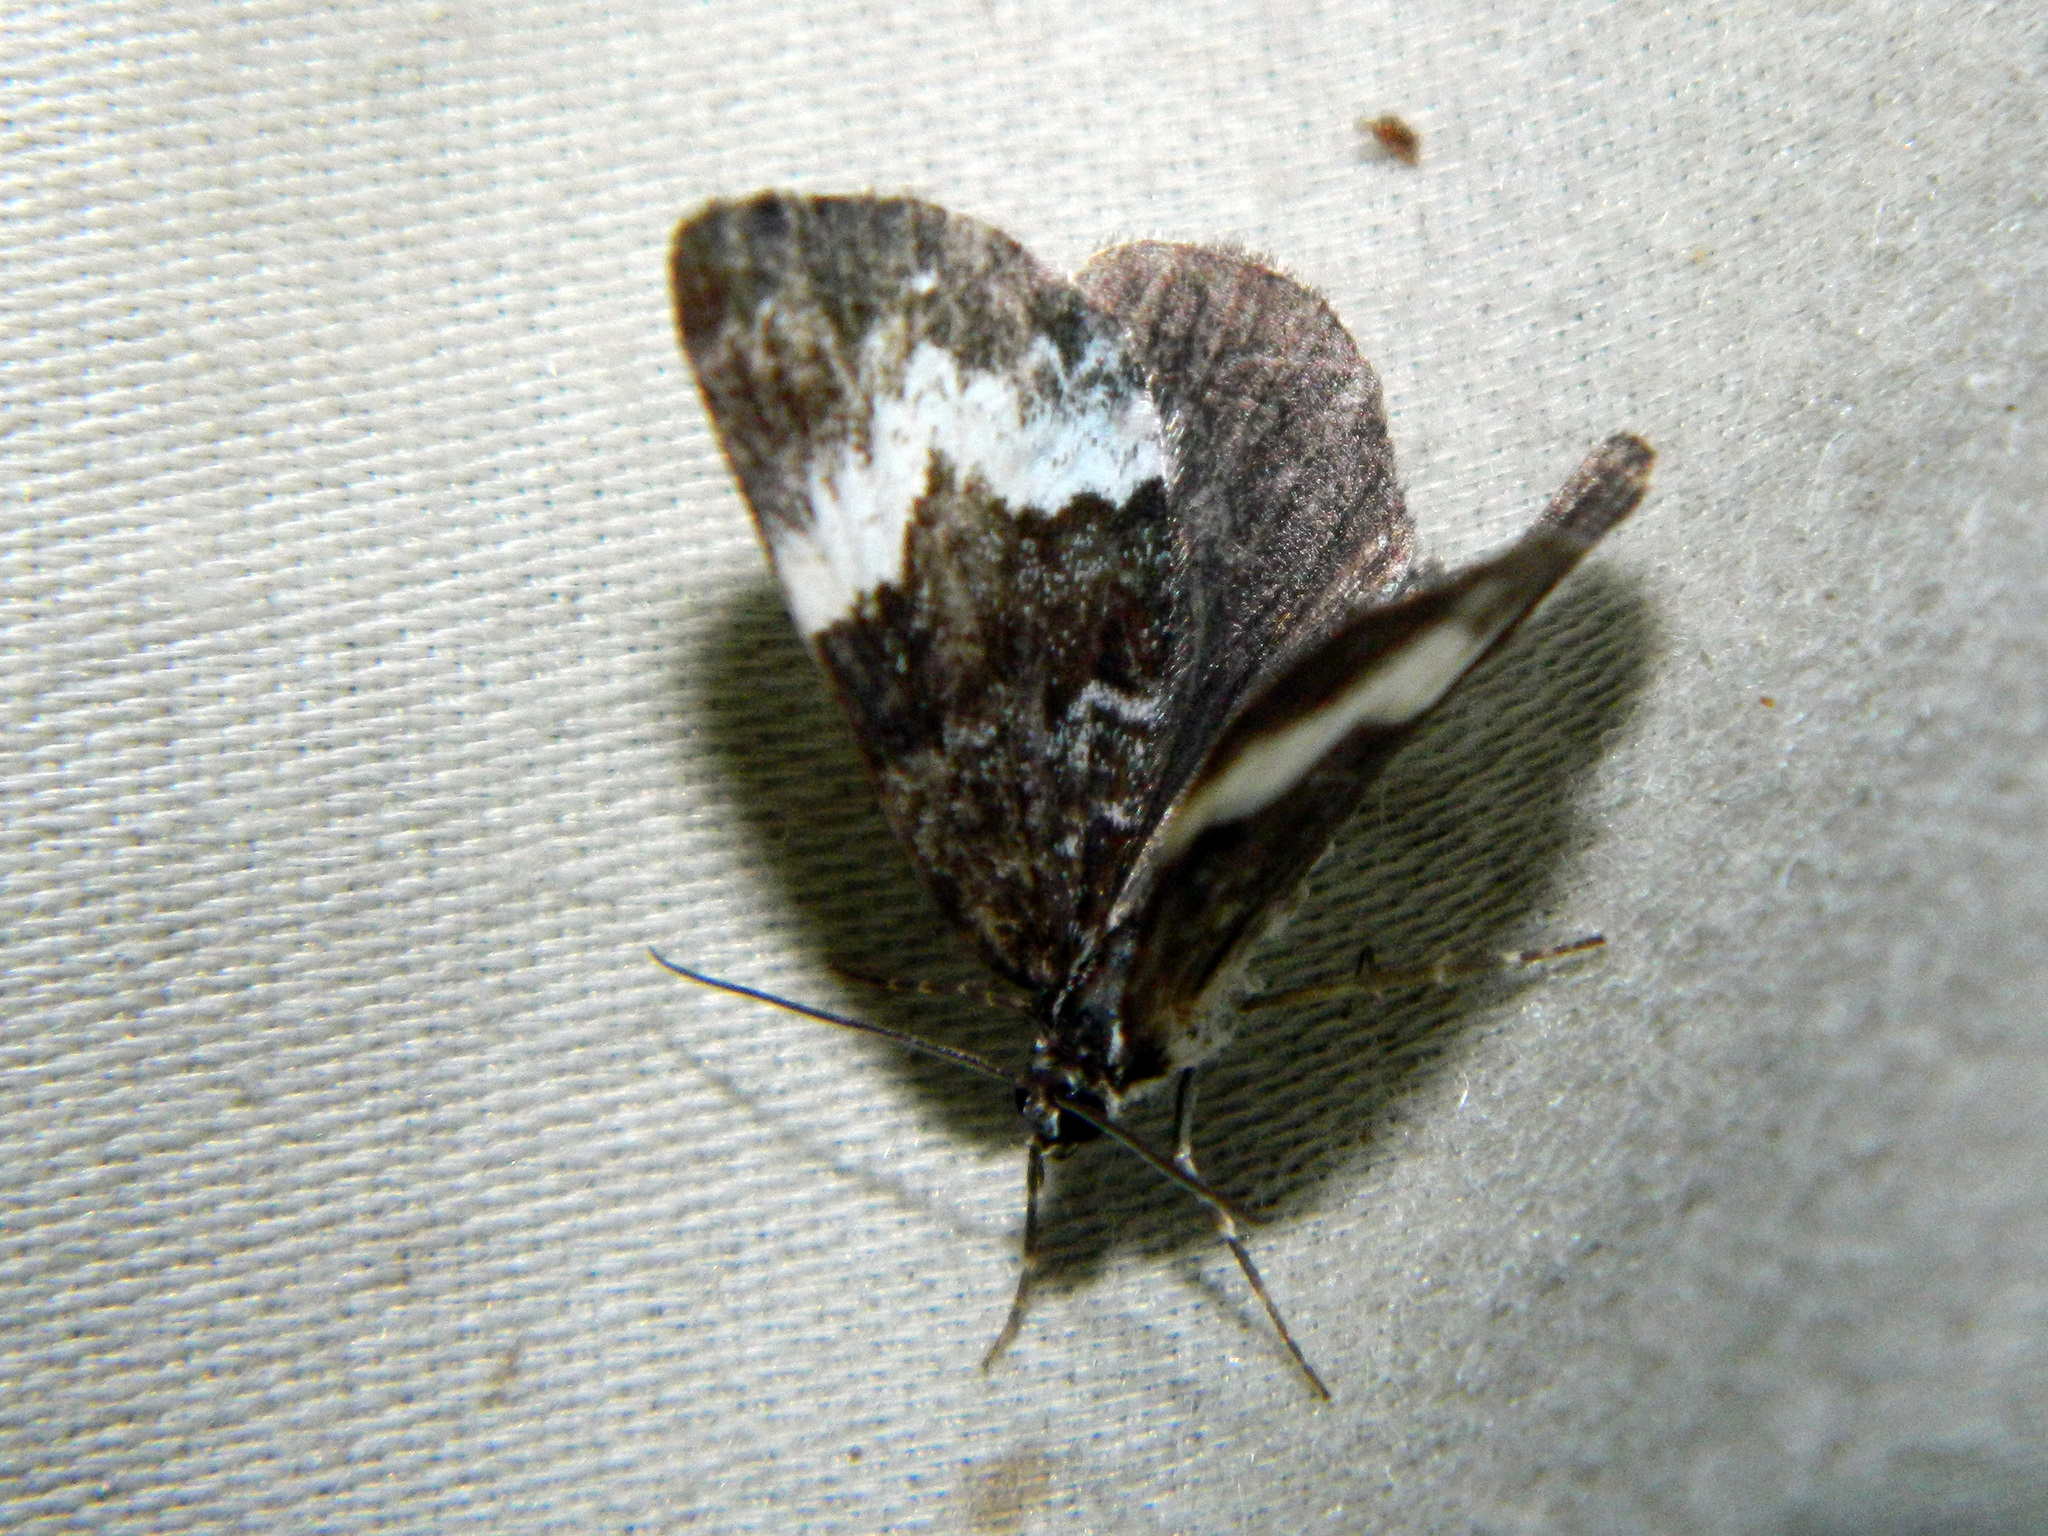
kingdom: Animalia
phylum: Arthropoda
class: Insecta
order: Lepidoptera
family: Geometridae
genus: Spargania
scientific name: Spargania luctuata
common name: White-banded carpet
